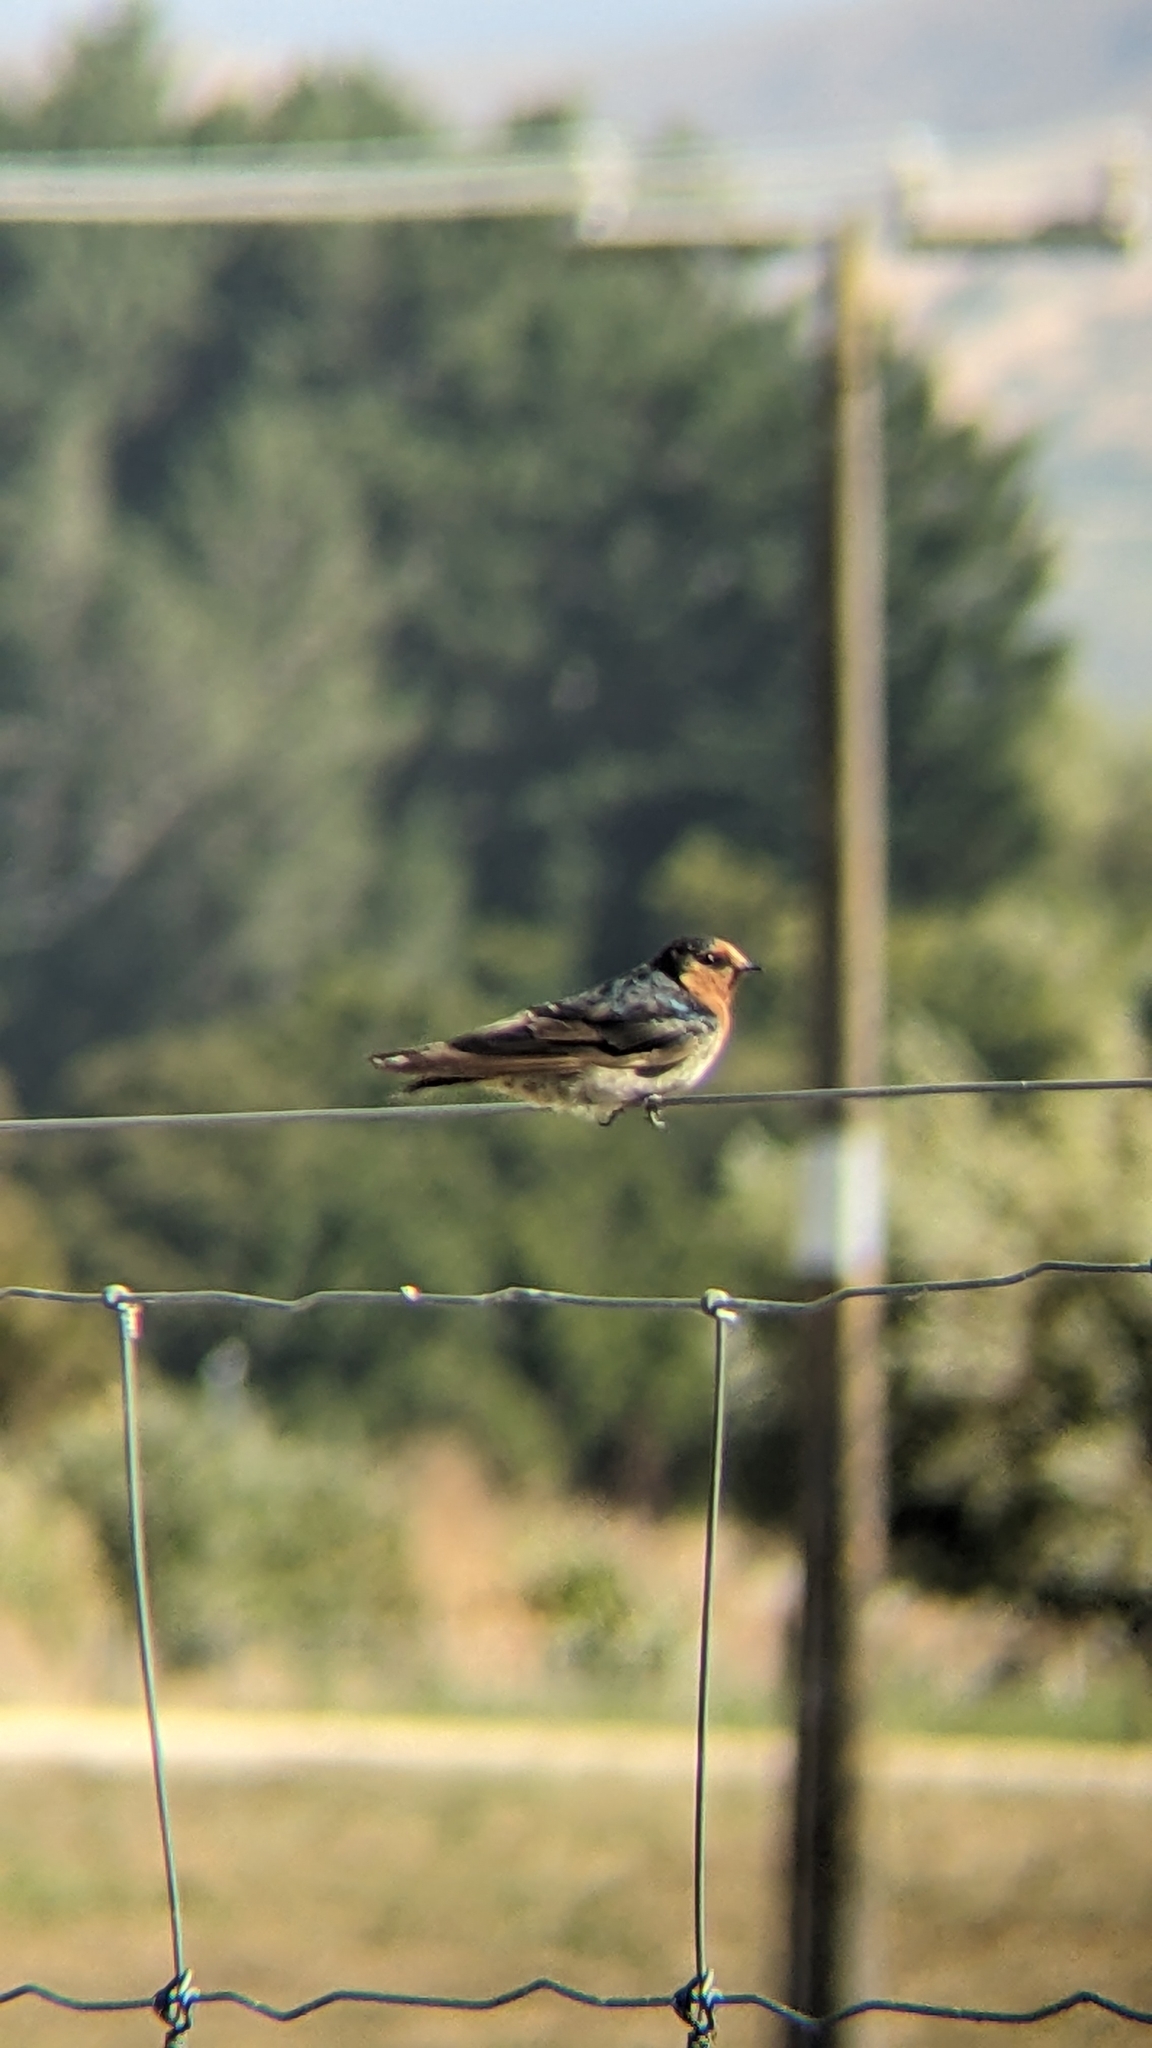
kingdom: Animalia
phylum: Chordata
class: Aves
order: Passeriformes
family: Hirundinidae
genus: Hirundo
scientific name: Hirundo neoxena
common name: Welcome swallow
